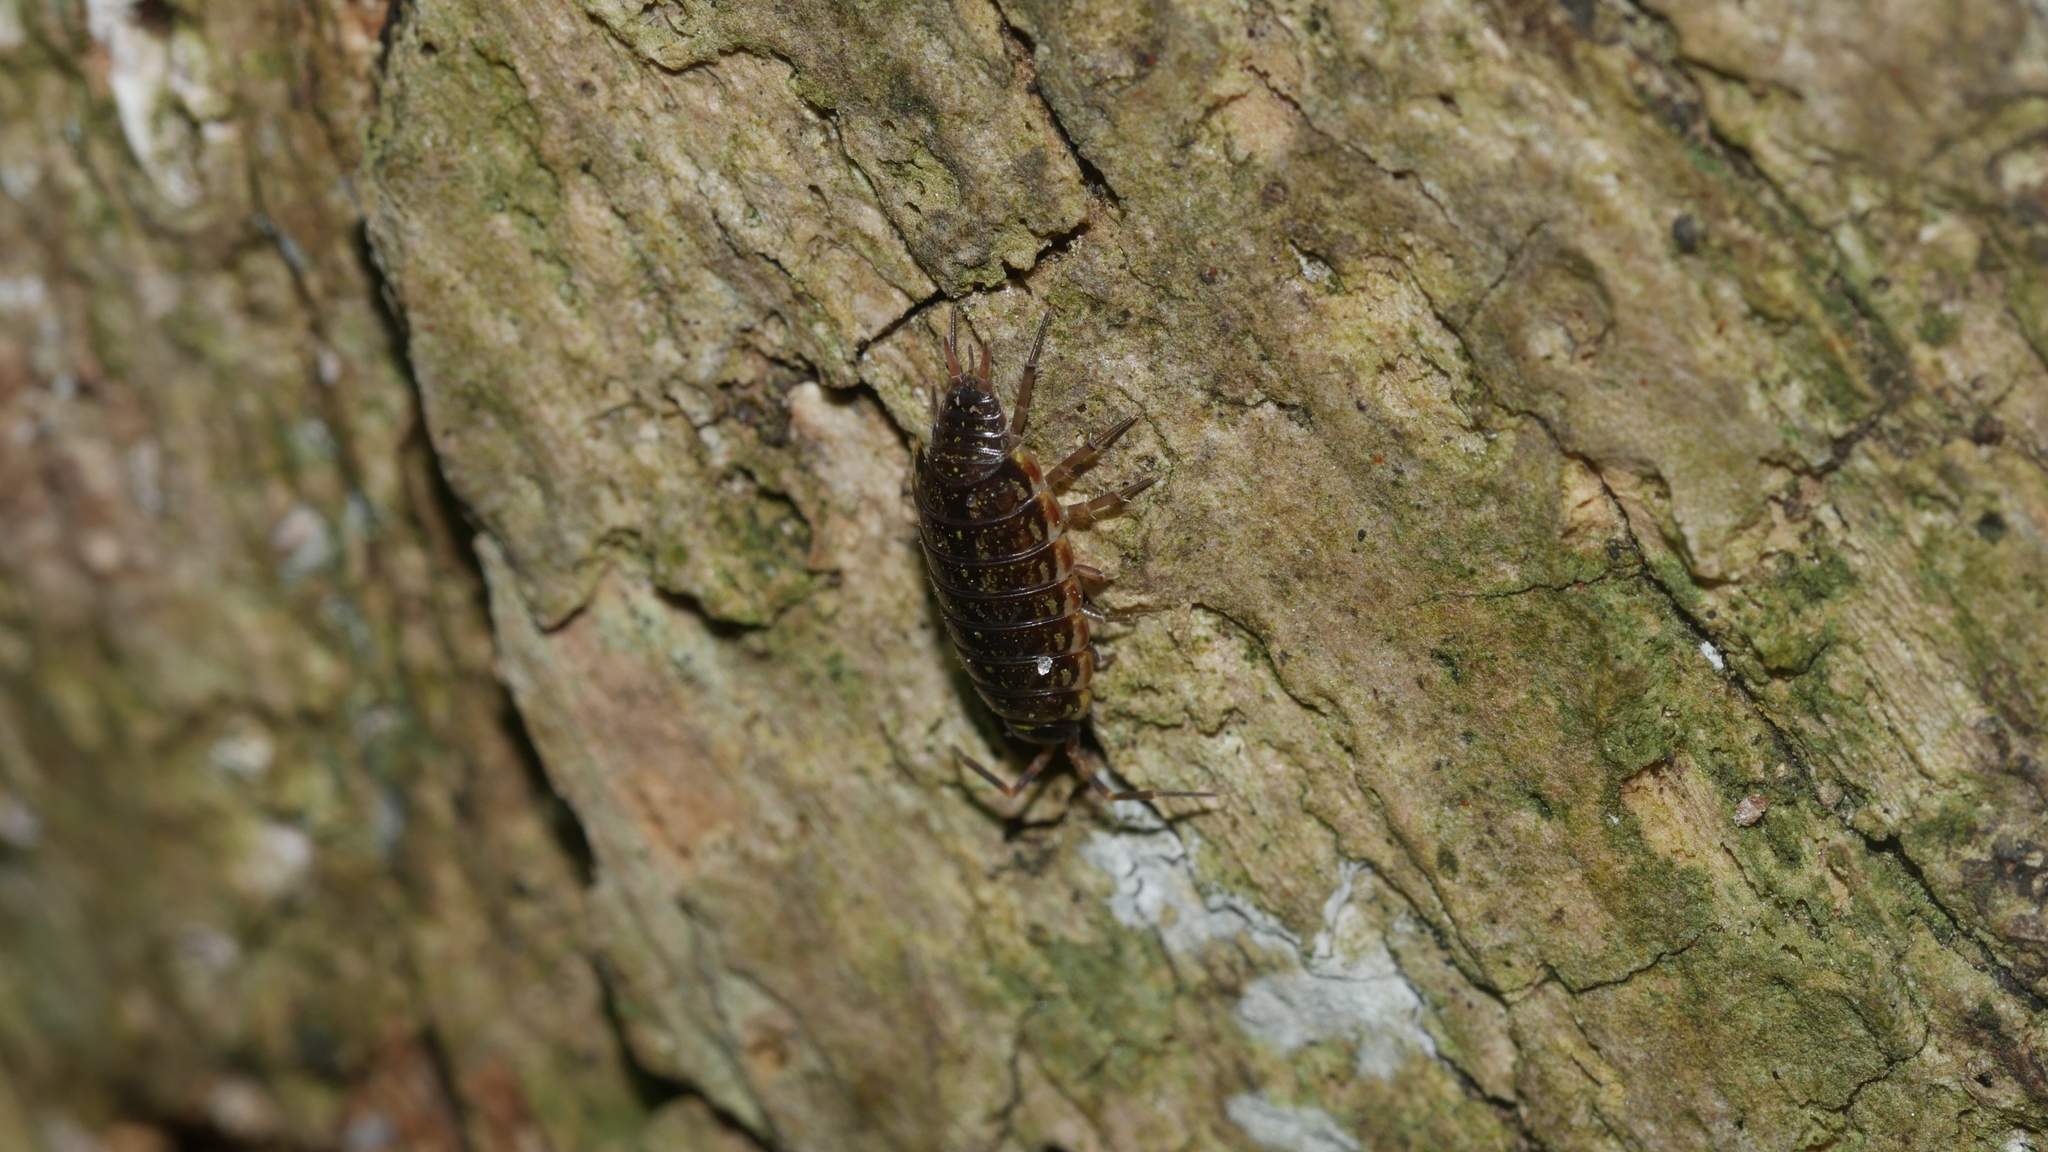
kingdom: Animalia
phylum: Arthropoda
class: Malacostraca
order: Isopoda
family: Philosciidae
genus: Philoscia
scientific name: Philoscia muscorum
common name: Common striped woodlouse
